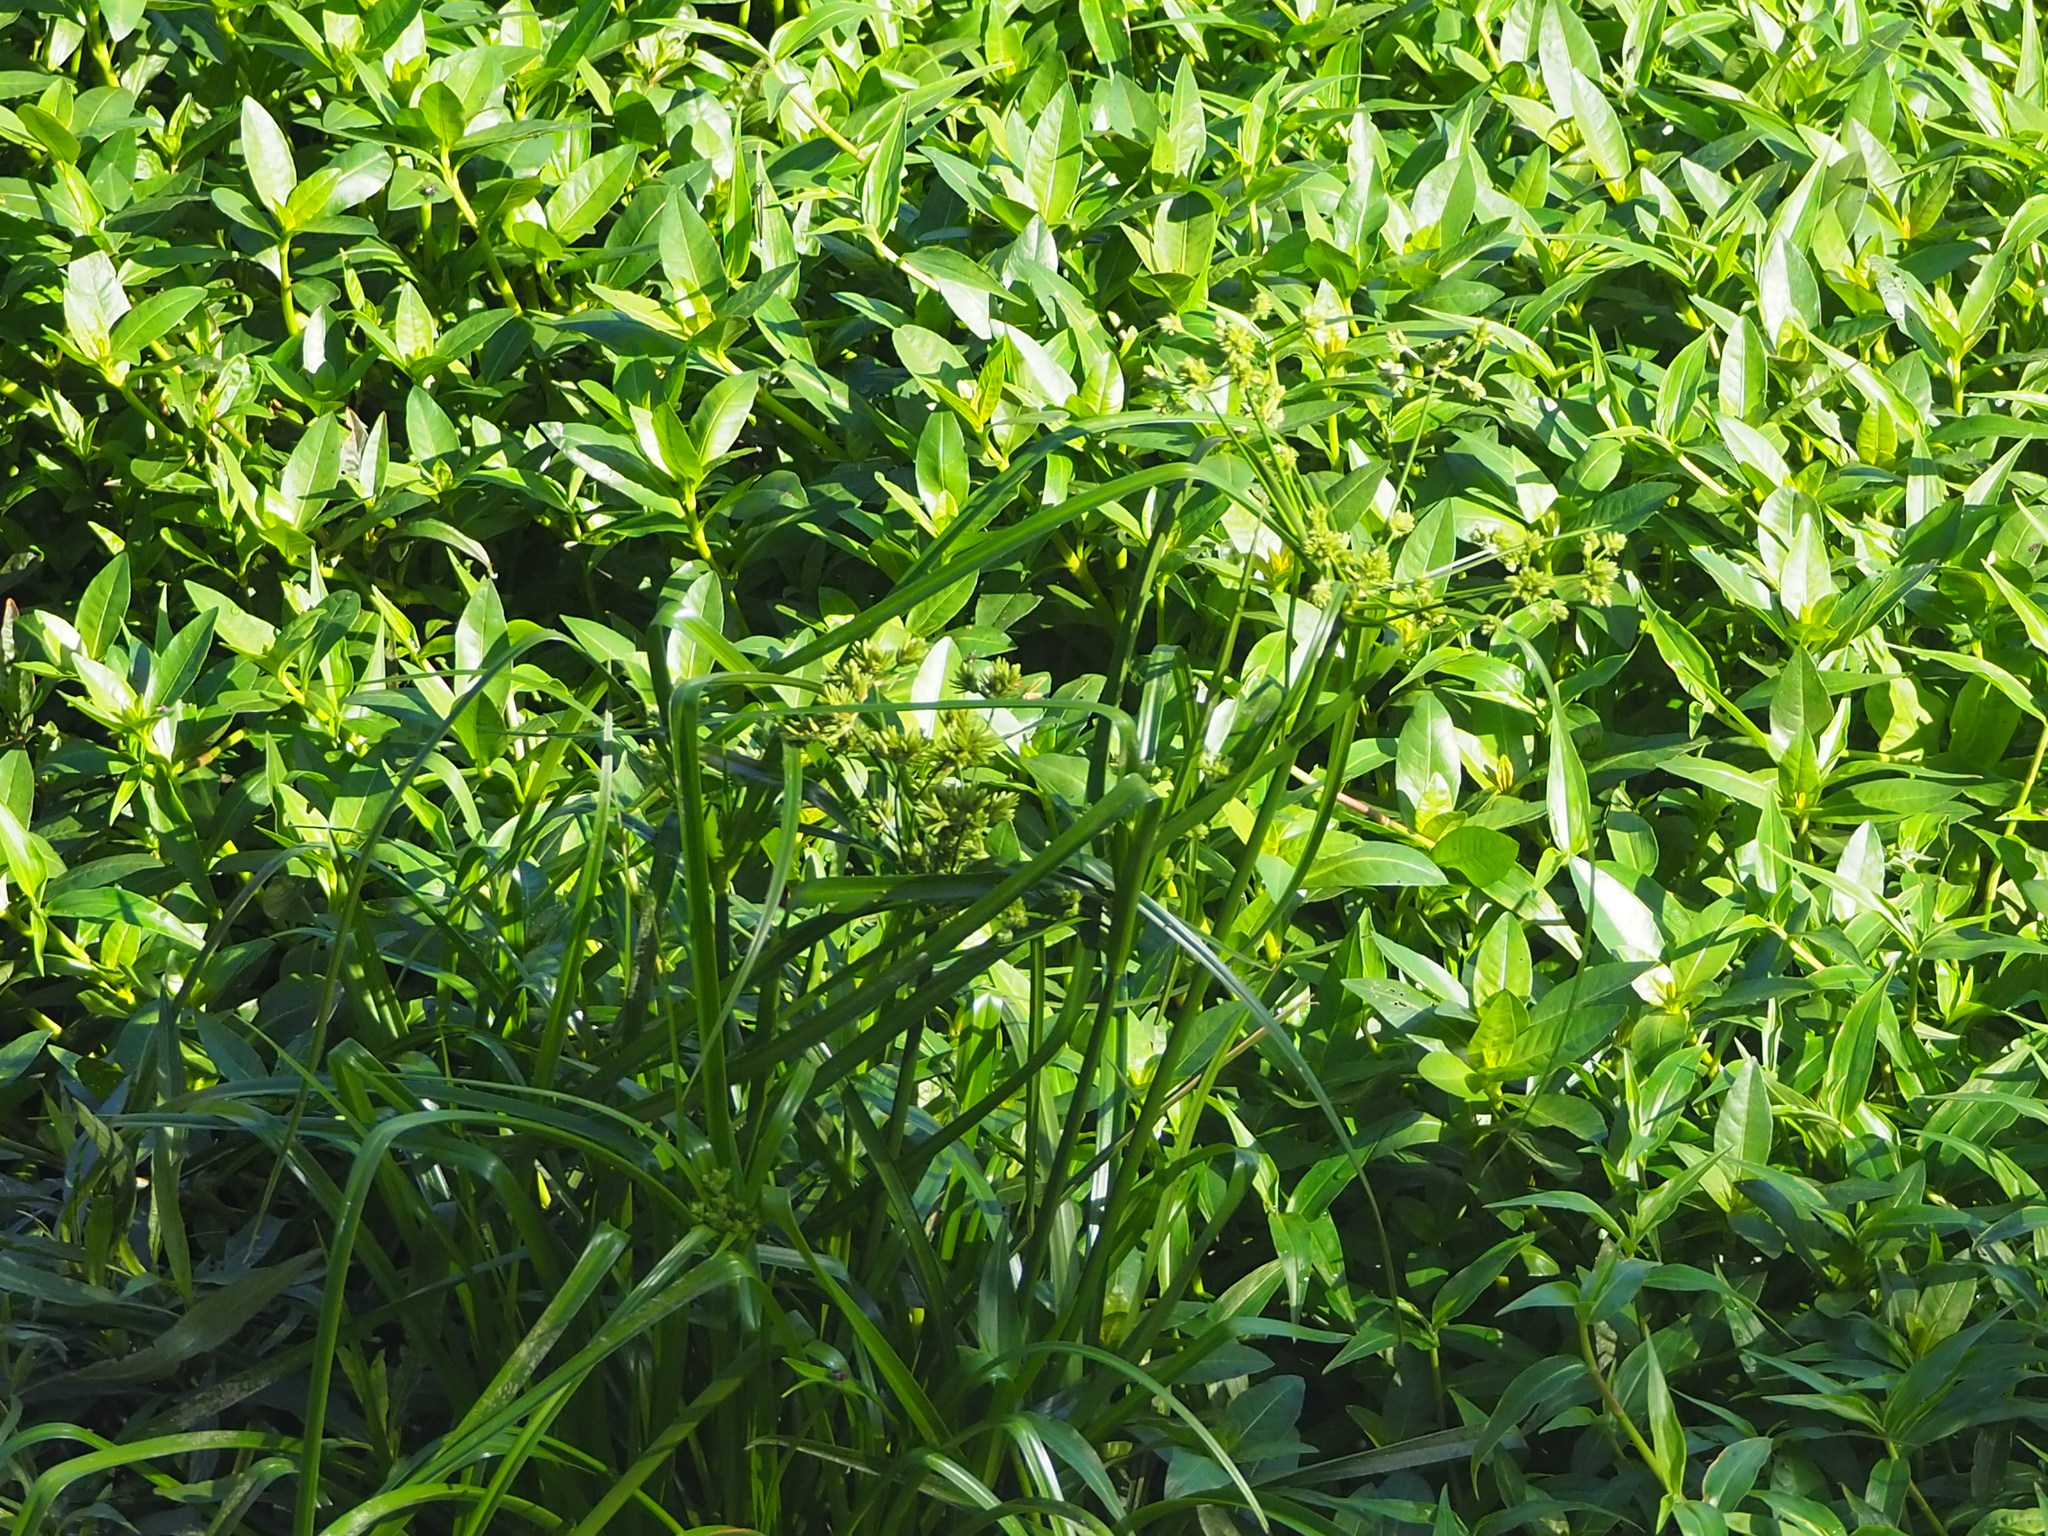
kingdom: Plantae
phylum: Tracheophyta
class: Liliopsida
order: Poales
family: Cyperaceae
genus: Cyperus
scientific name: Cyperus eragrostis
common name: Tall flatsedge
